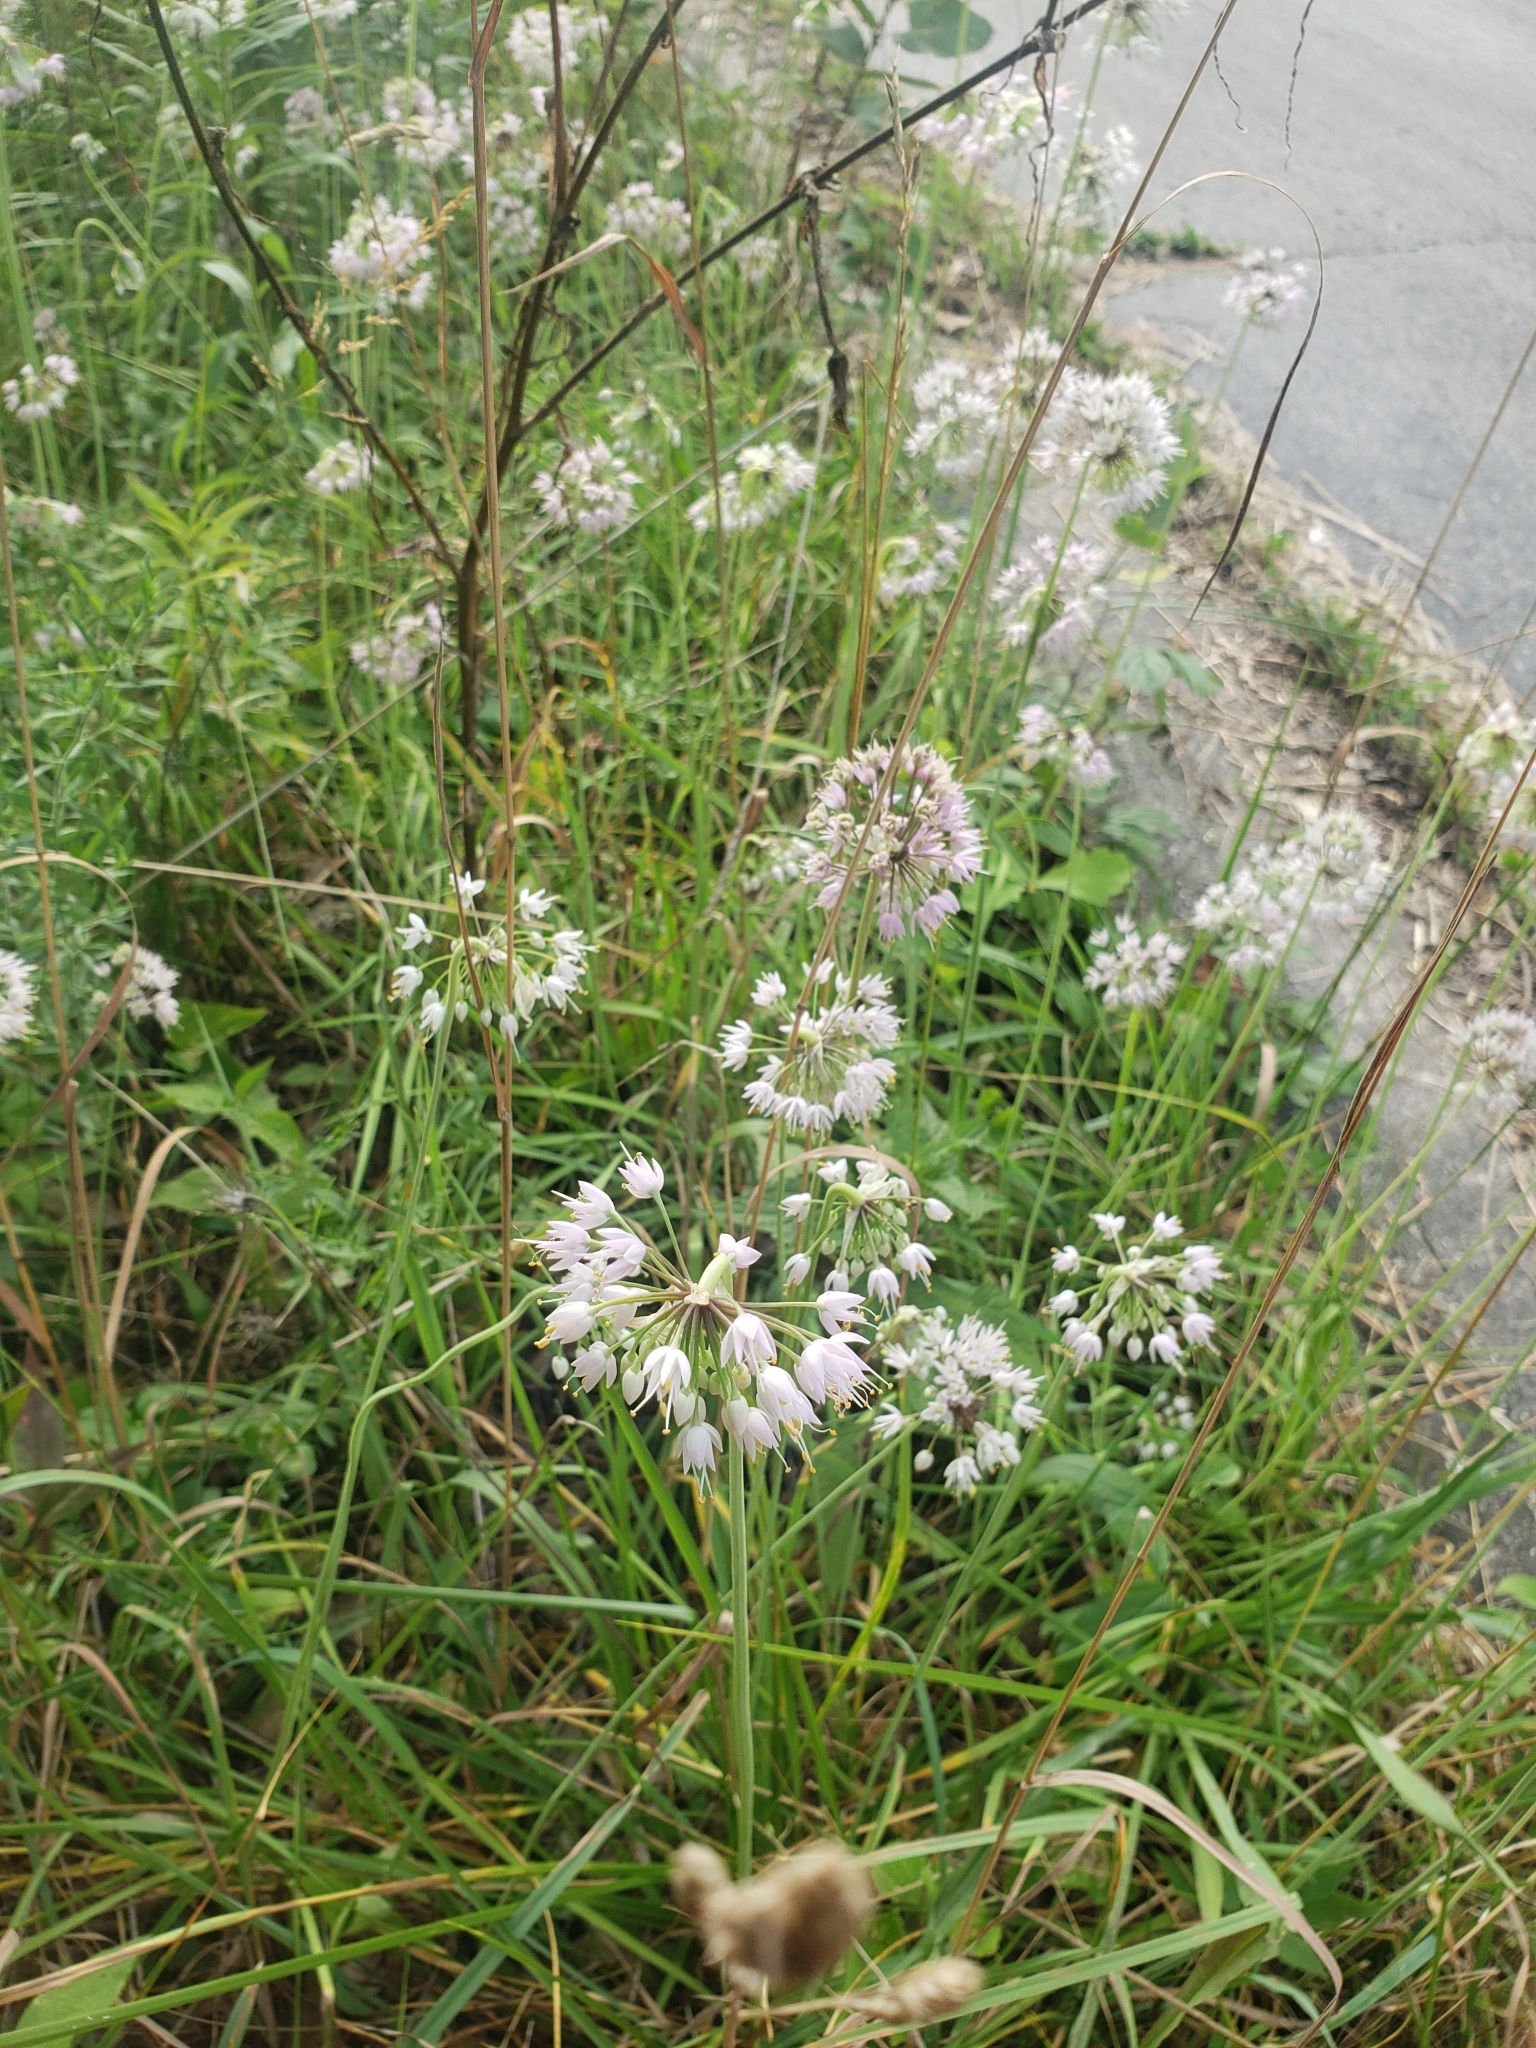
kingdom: Plantae
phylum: Tracheophyta
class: Liliopsida
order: Asparagales
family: Amaryllidaceae
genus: Allium
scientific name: Allium cernuum
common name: Nodding onion
